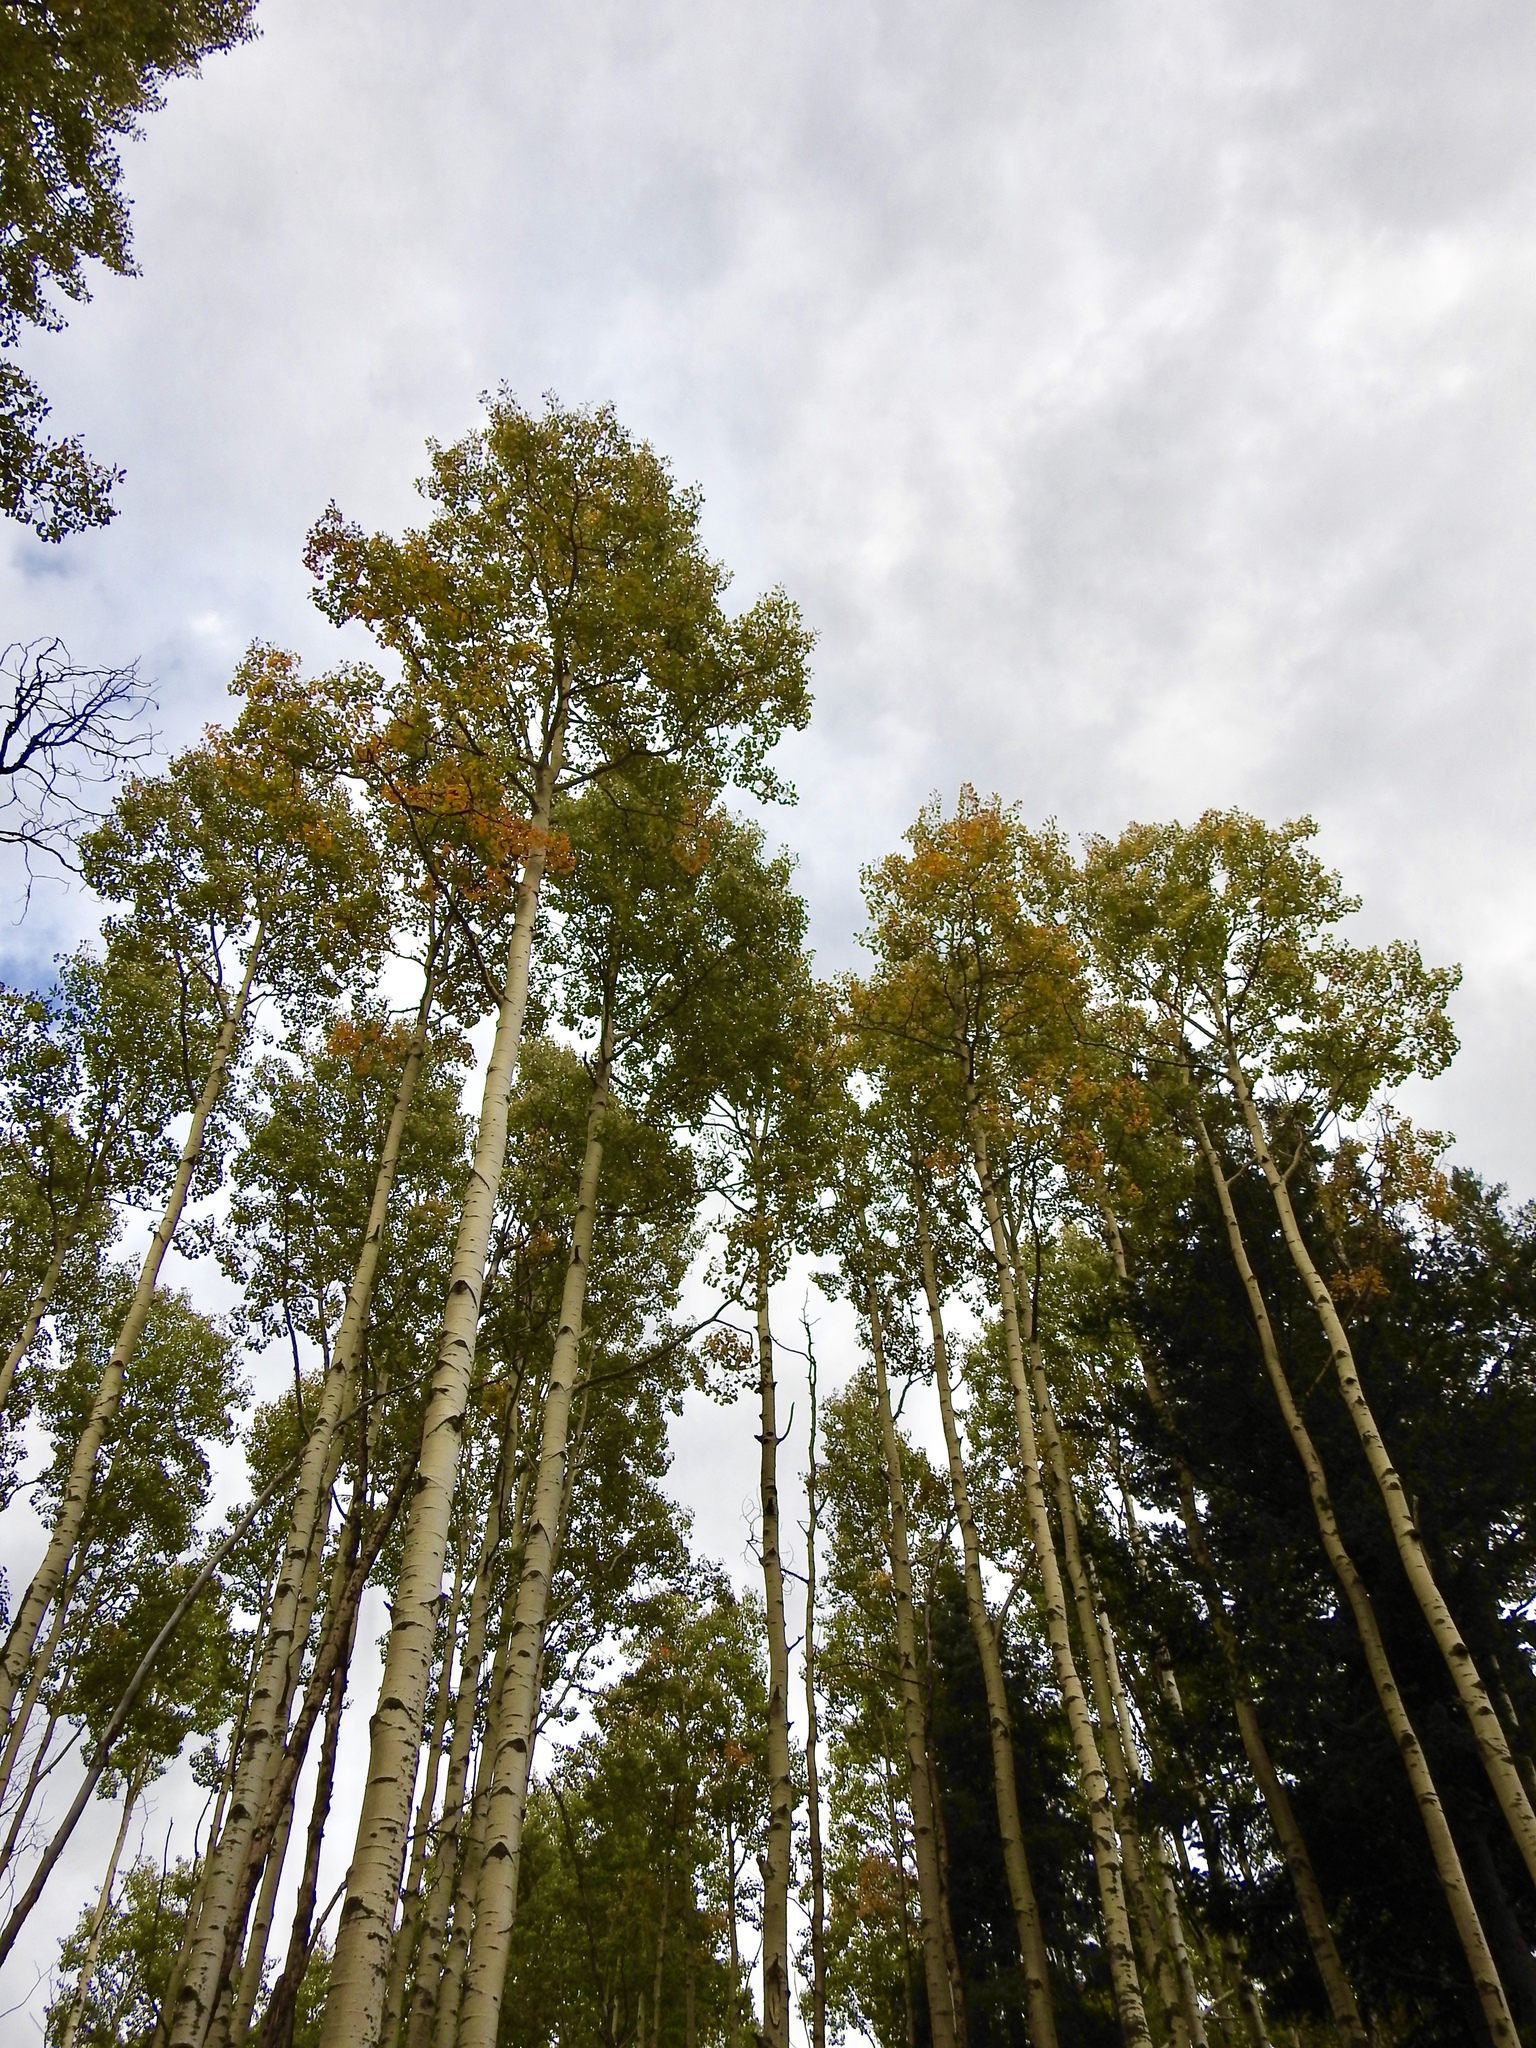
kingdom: Plantae
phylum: Tracheophyta
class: Magnoliopsida
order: Malpighiales
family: Salicaceae
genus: Populus
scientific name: Populus tremuloides
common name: Quaking aspen
